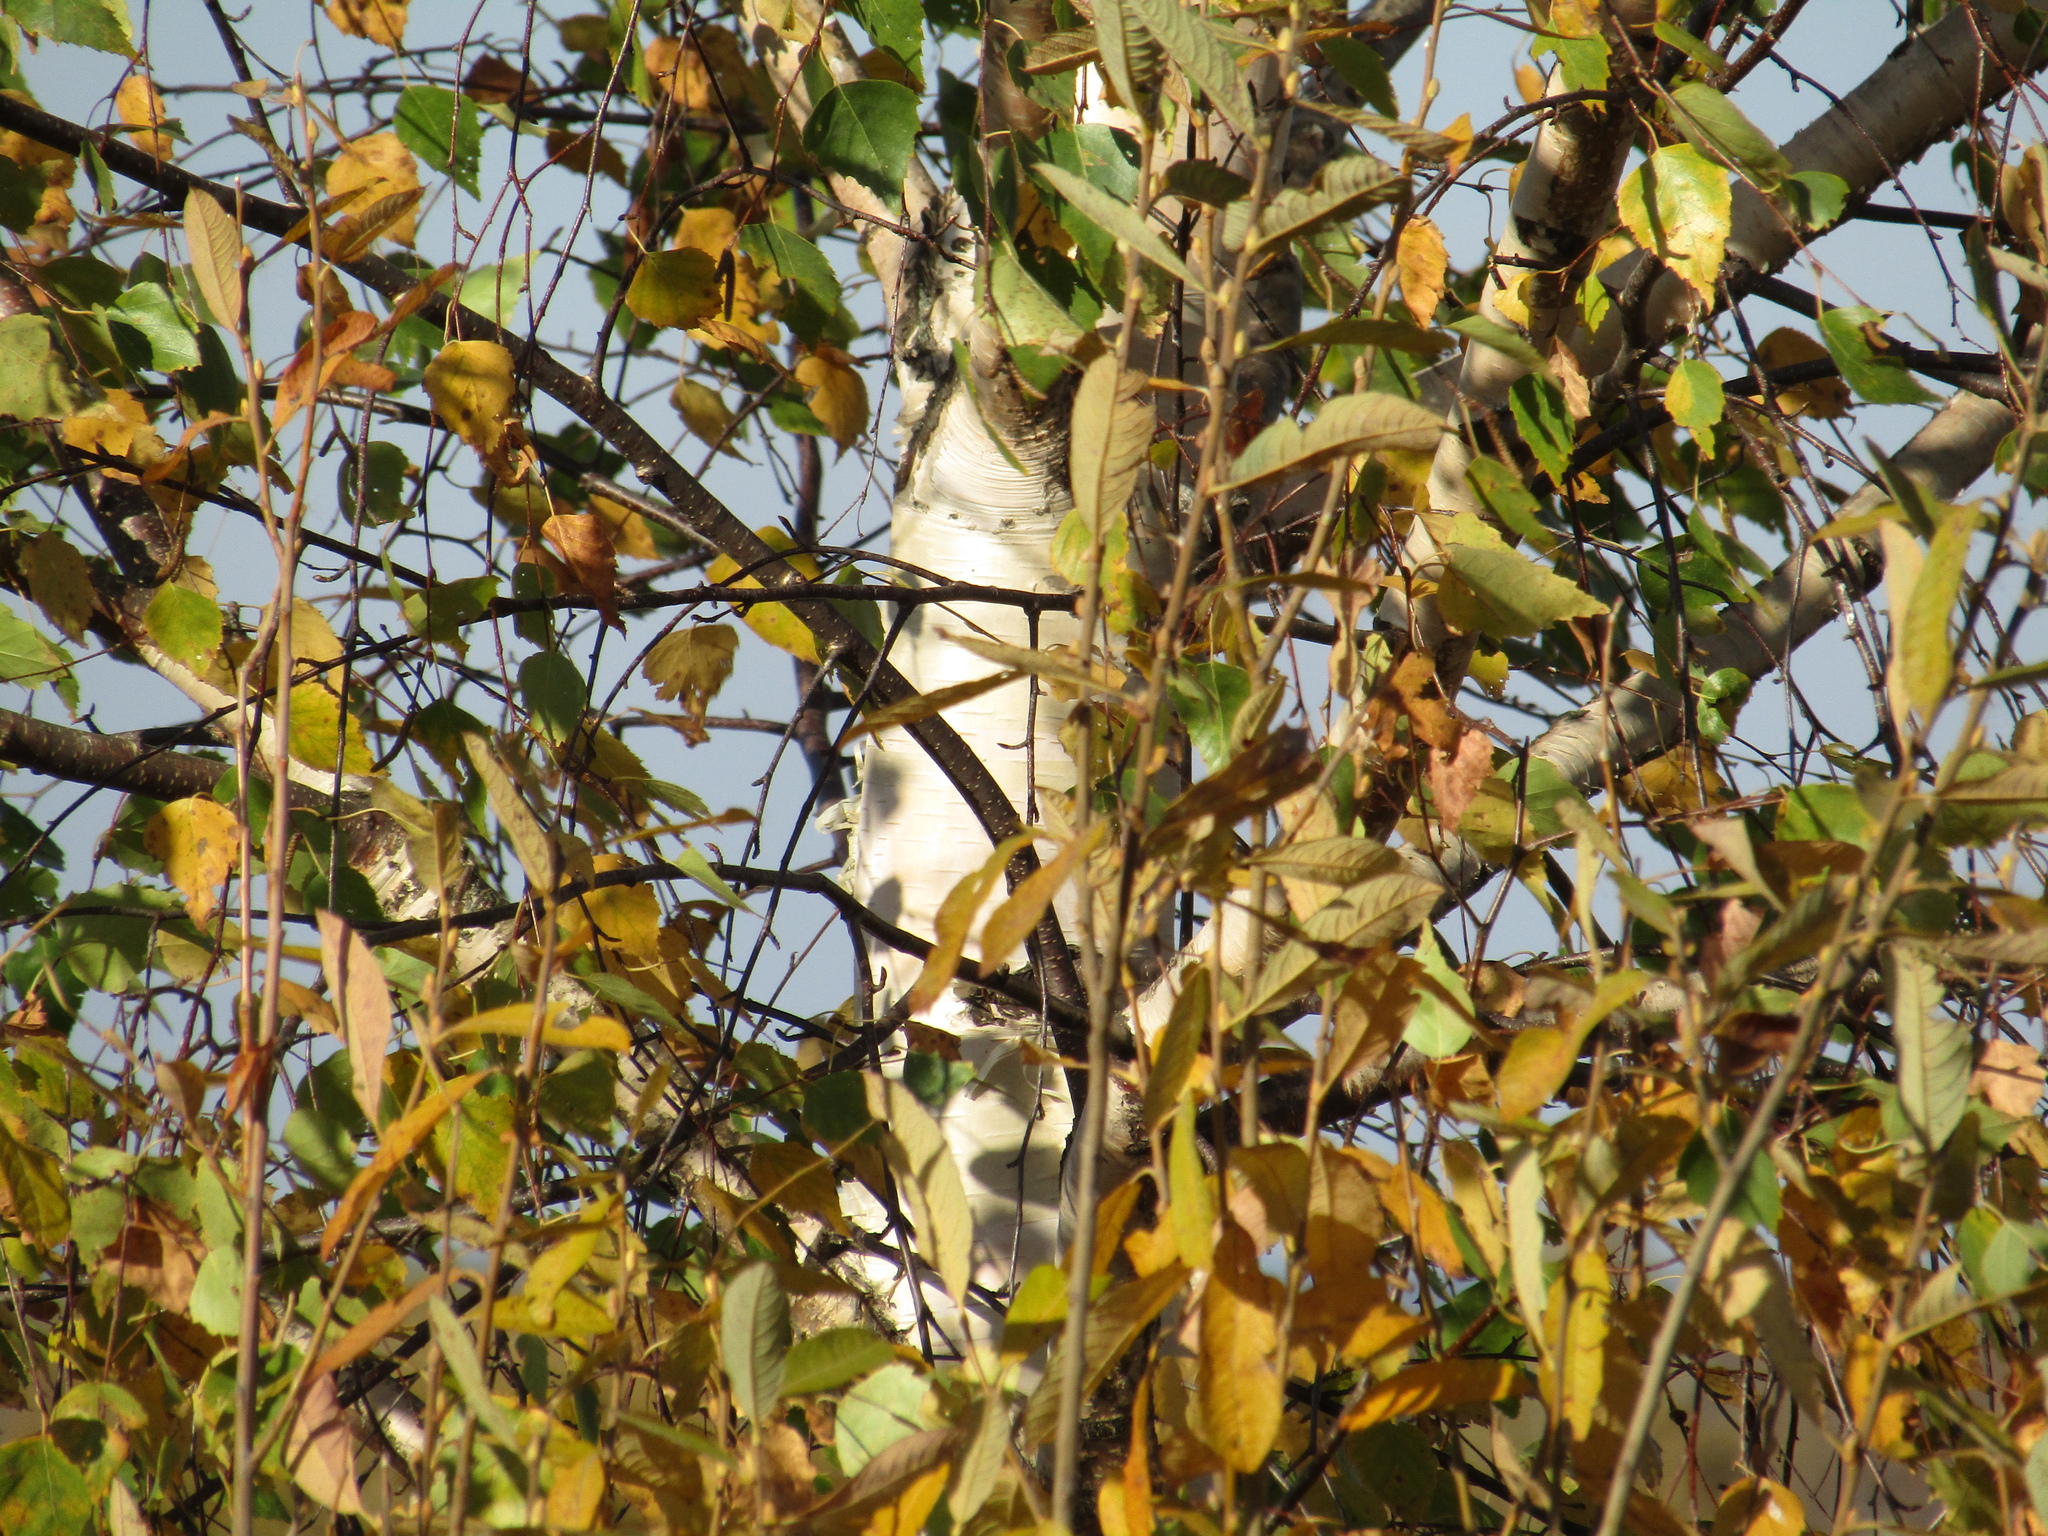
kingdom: Plantae
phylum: Tracheophyta
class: Magnoliopsida
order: Fagales
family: Betulaceae
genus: Betula
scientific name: Betula pendula
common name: Silver birch
